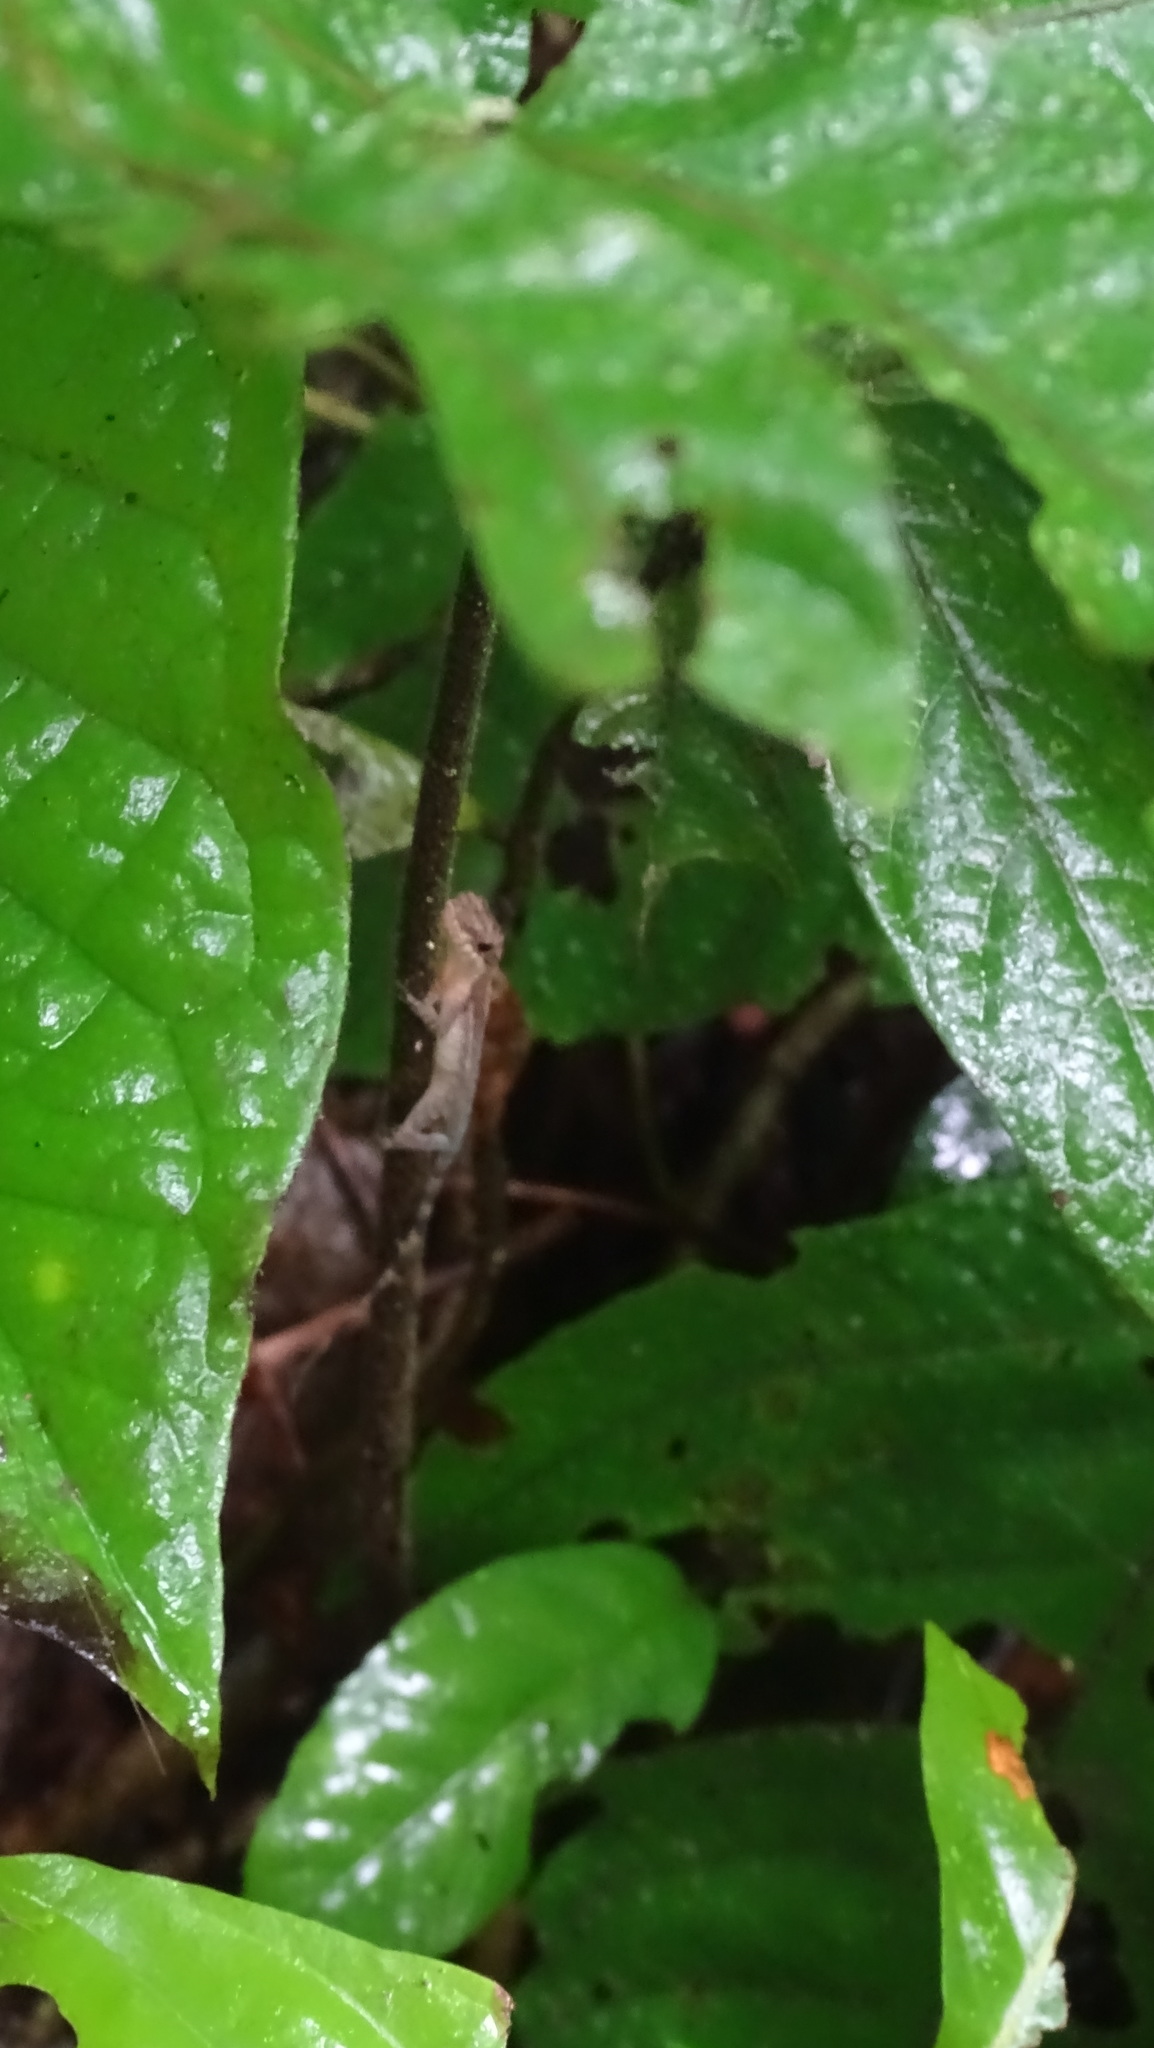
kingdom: Animalia
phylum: Chordata
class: Squamata
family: Dactyloidae
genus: Anolis
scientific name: Anolis apletophallus
